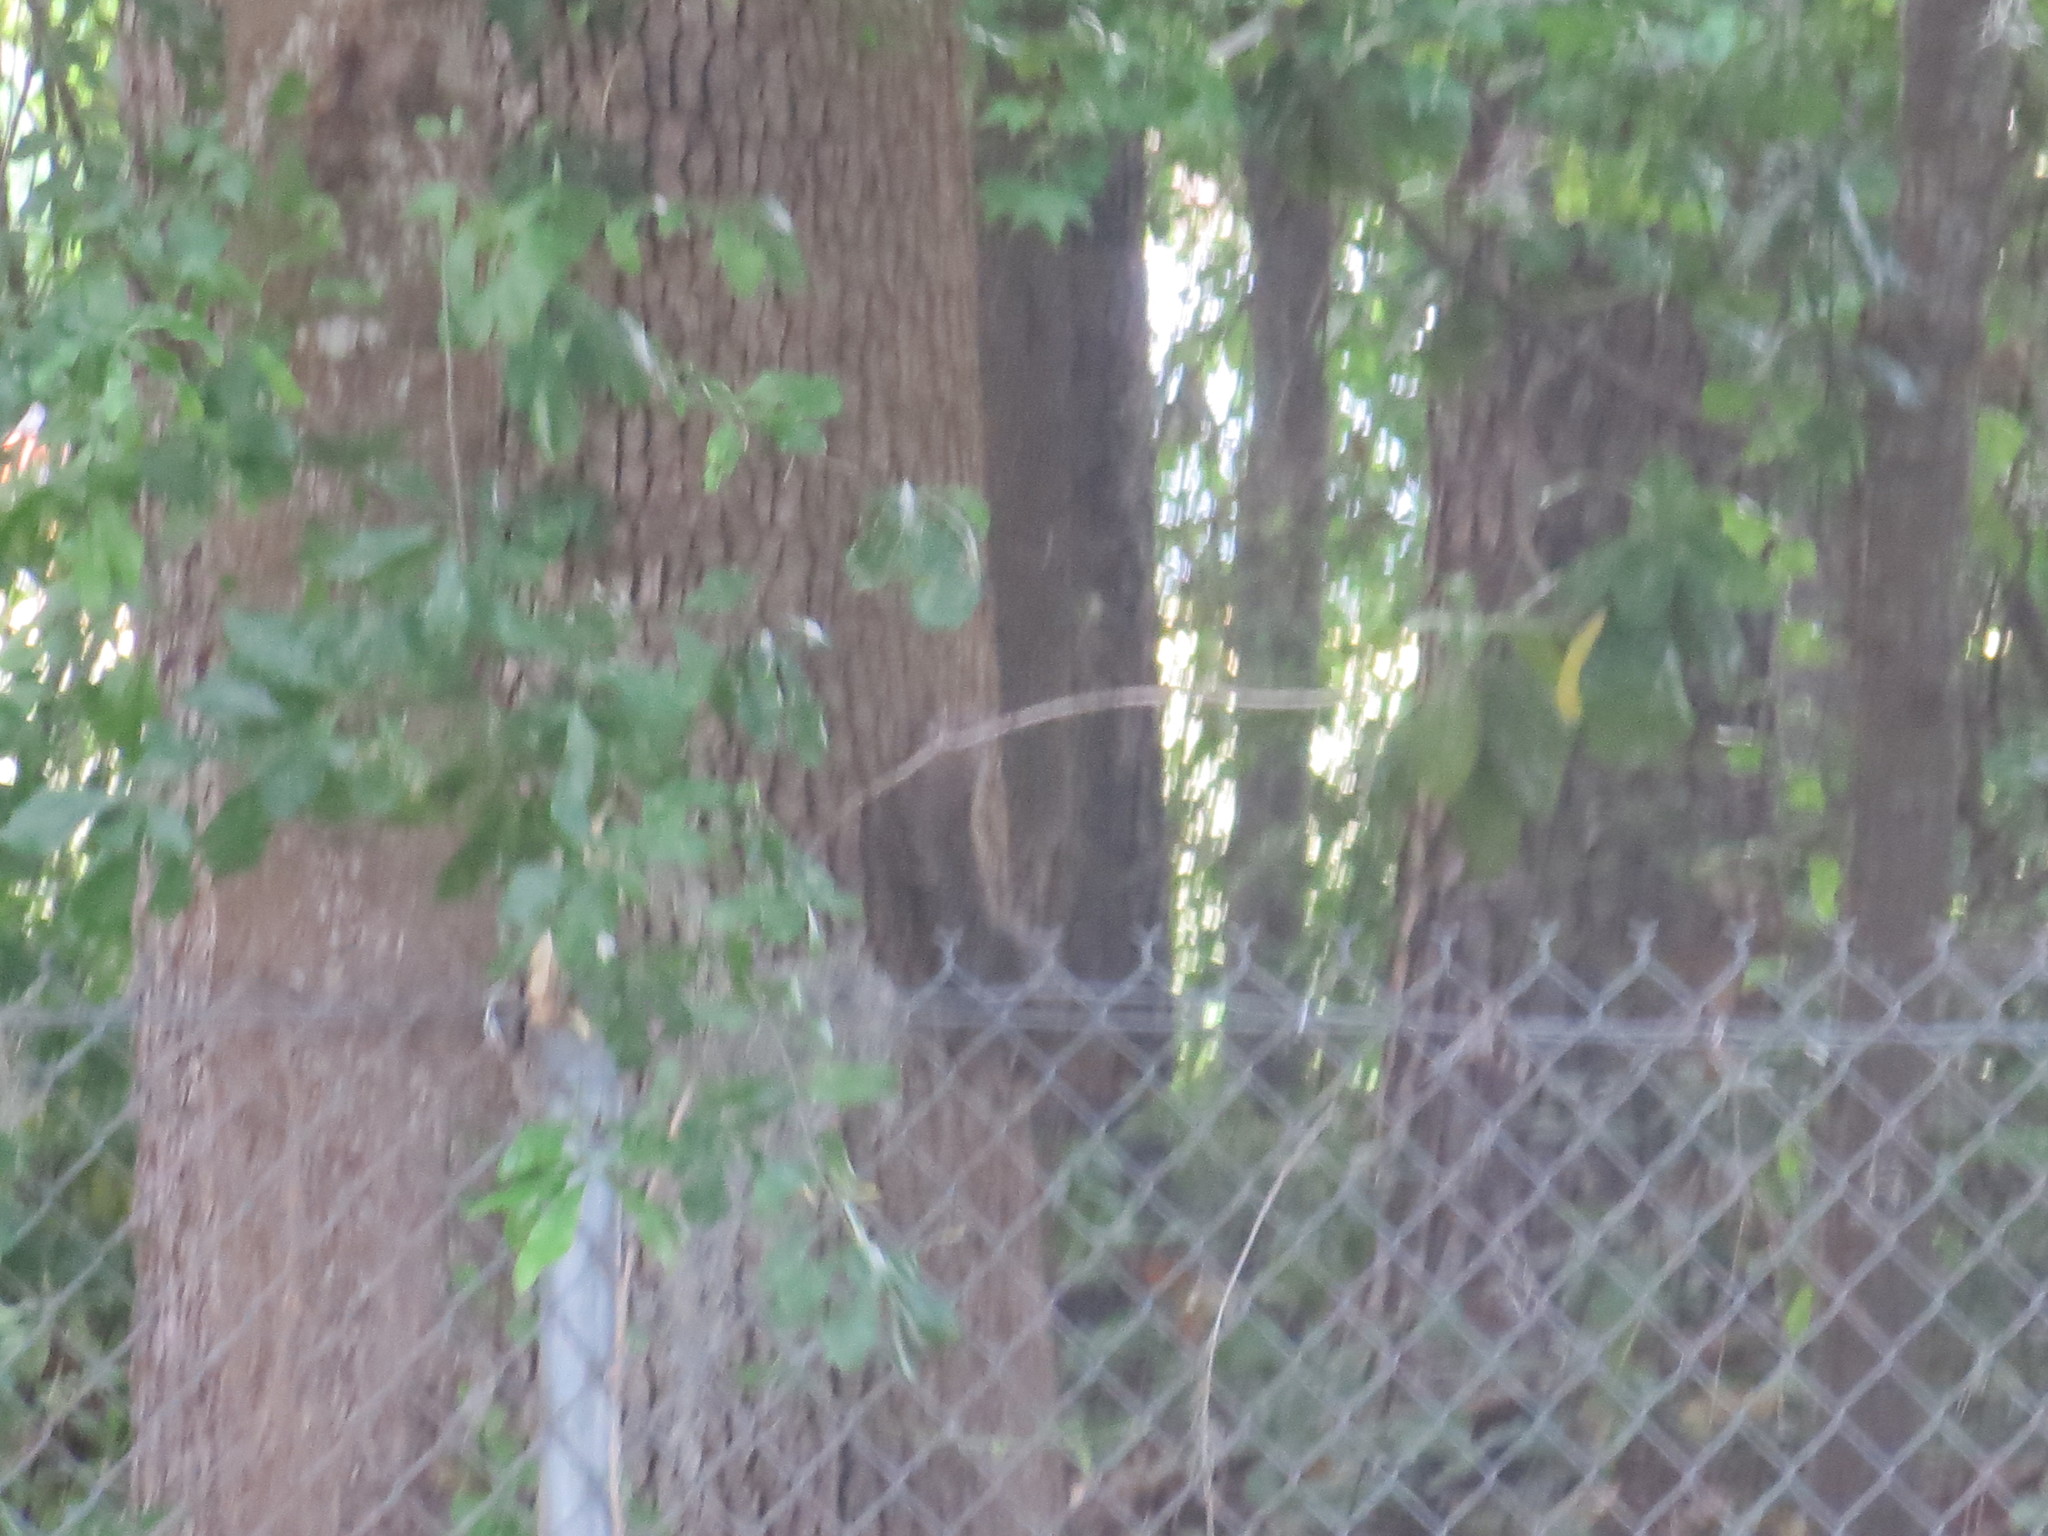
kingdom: Animalia
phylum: Chordata
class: Mammalia
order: Rodentia
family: Sciuridae
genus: Sciurus
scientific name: Sciurus carolinensis
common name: Eastern gray squirrel
